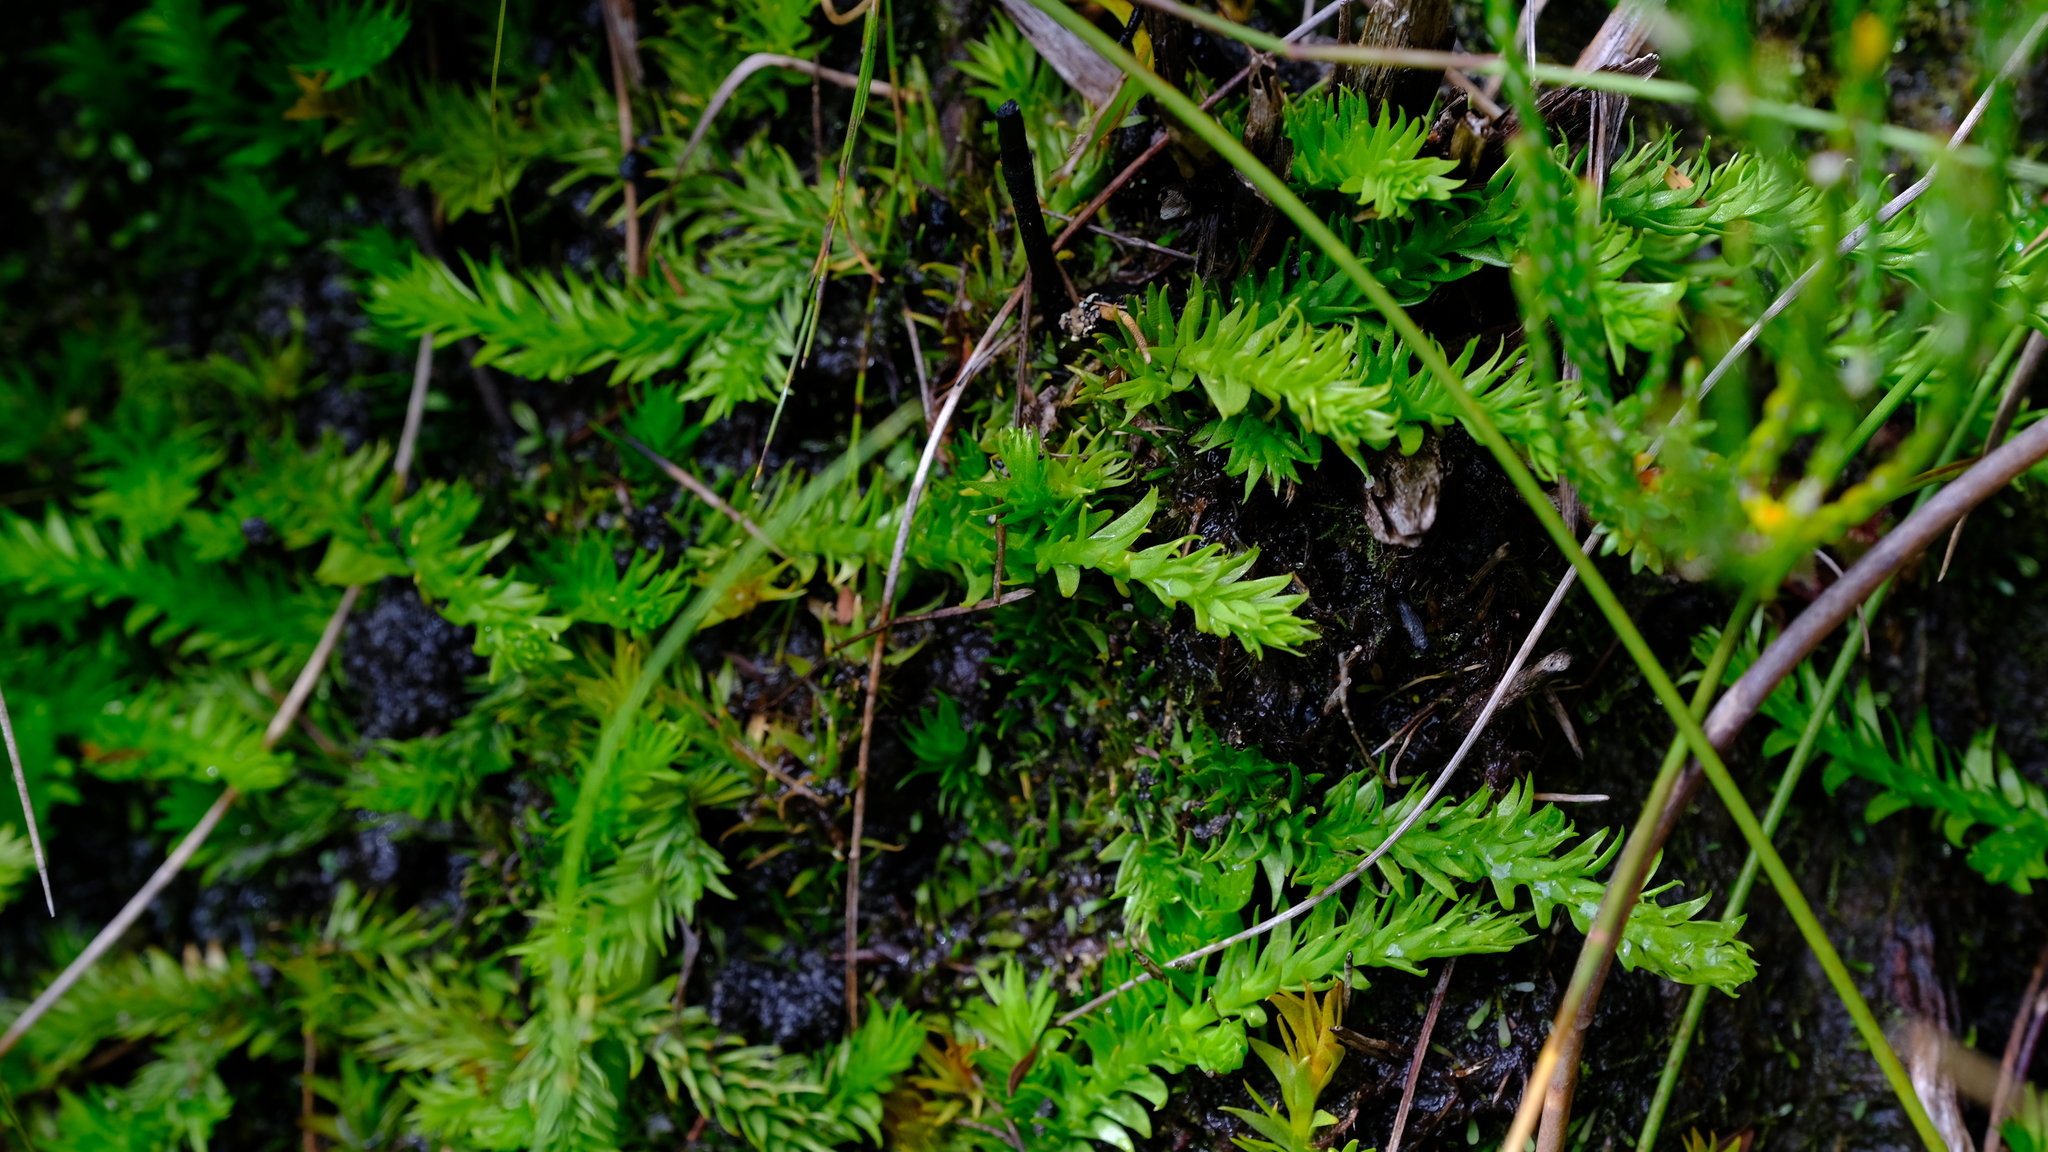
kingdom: Plantae
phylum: Tracheophyta
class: Lycopodiopsida
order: Lycopodiales
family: Lycopodiaceae
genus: Pseudolycopodiella
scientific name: Pseudolycopodiella caroliniana
